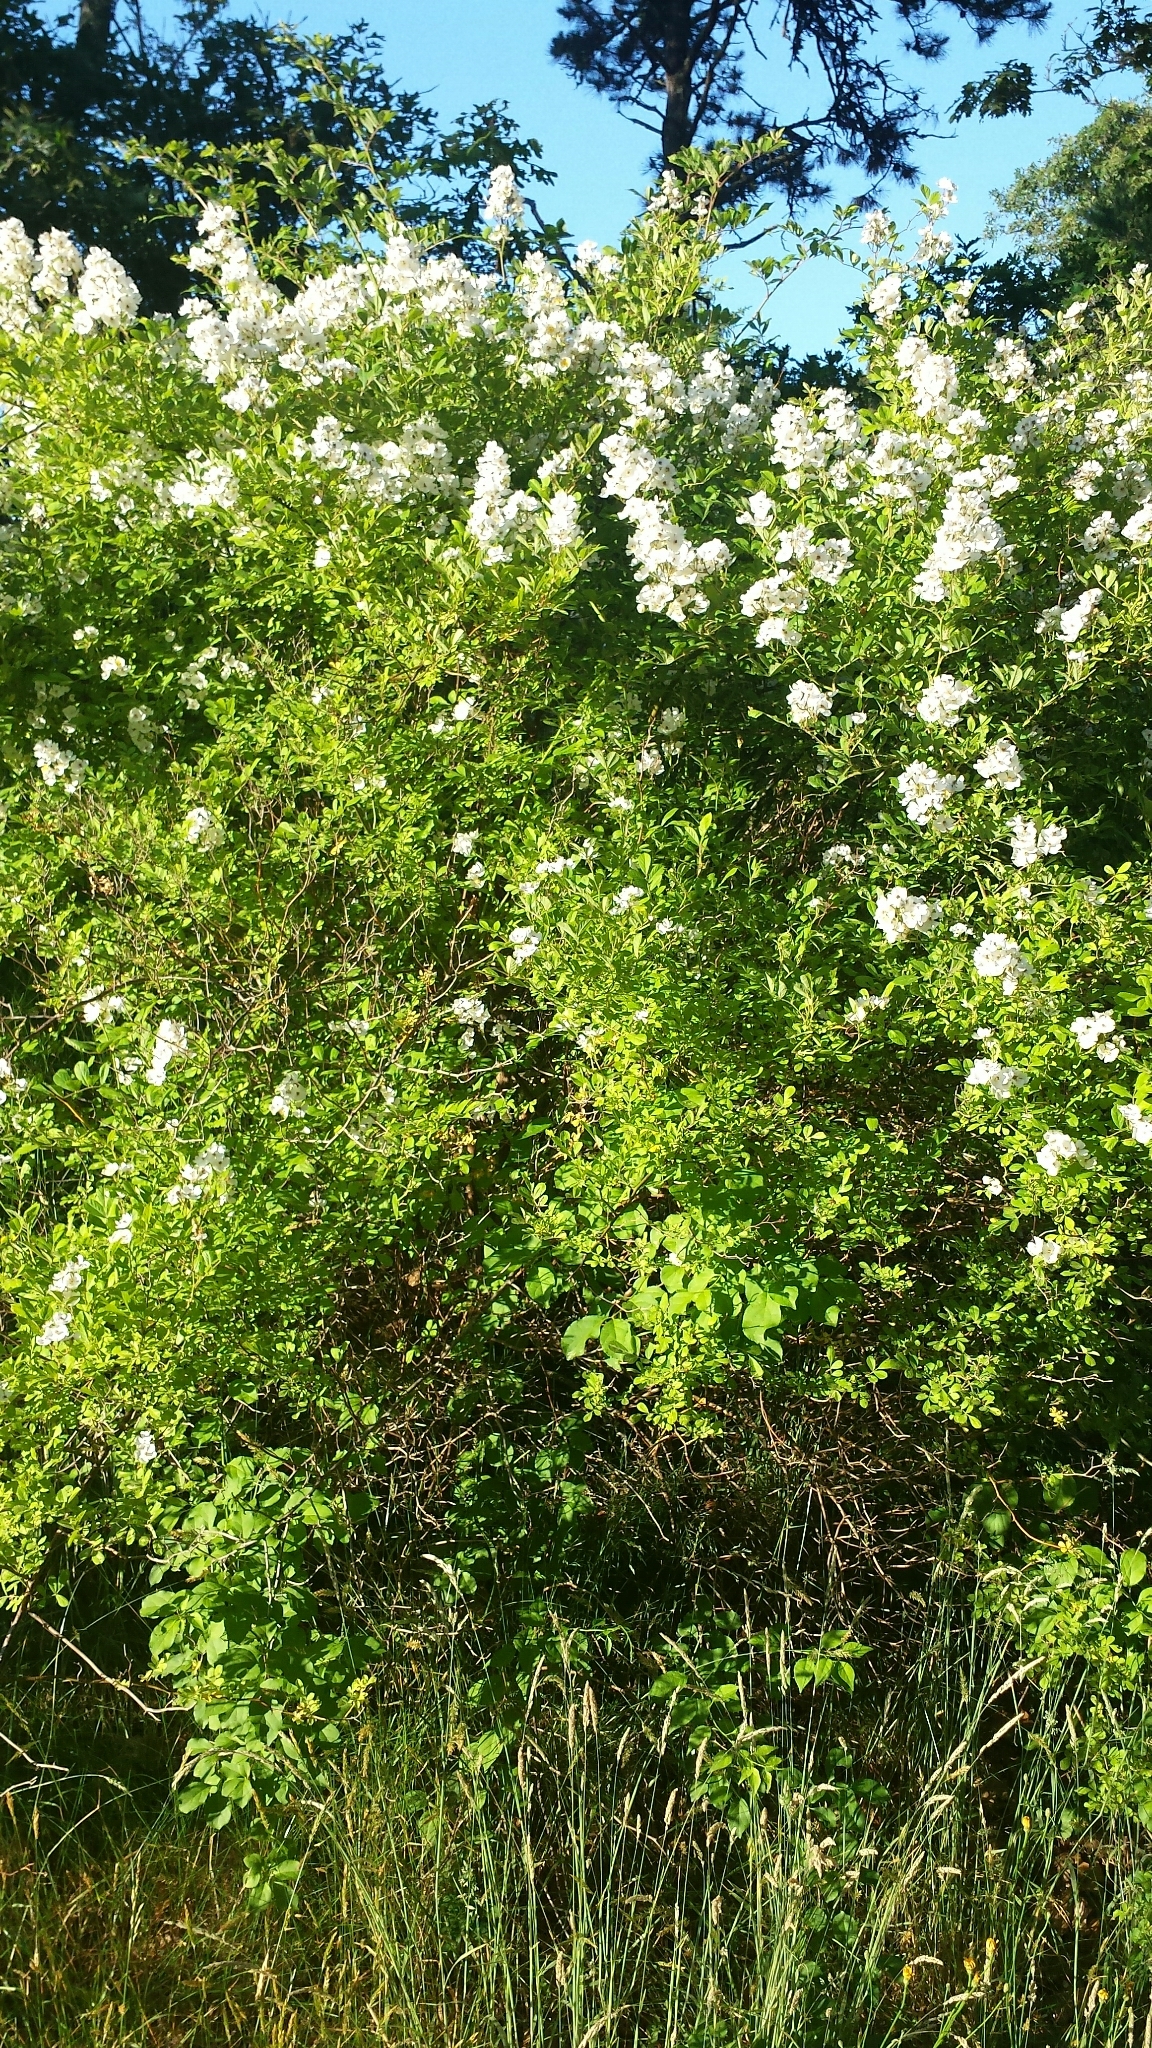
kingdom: Plantae
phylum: Tracheophyta
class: Magnoliopsida
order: Rosales
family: Rosaceae
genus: Rosa
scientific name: Rosa multiflora
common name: Multiflora rose
